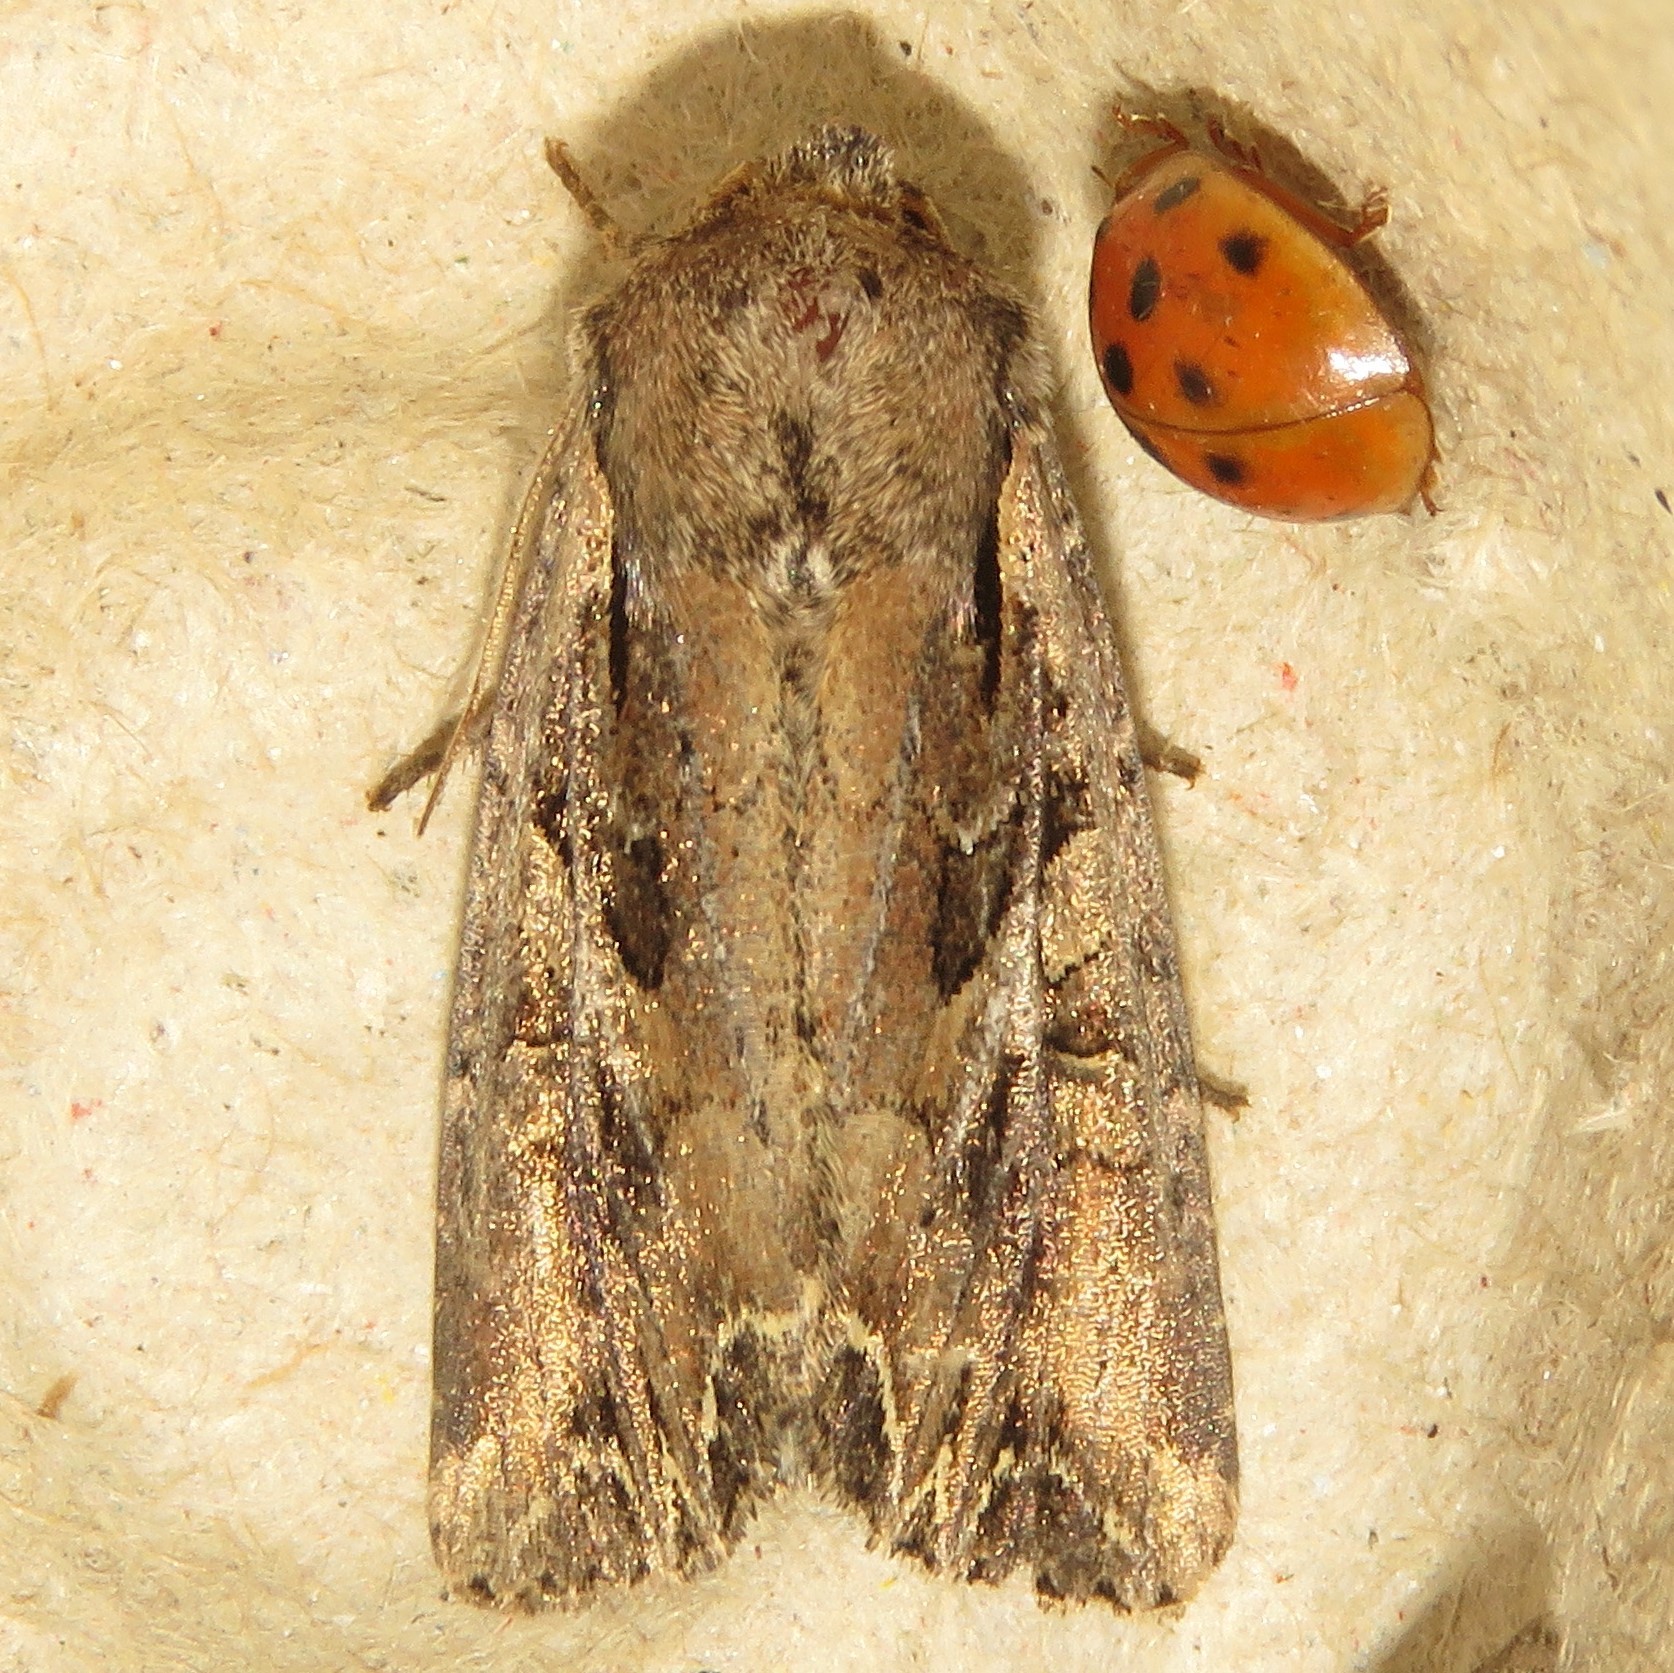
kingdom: Animalia
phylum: Arthropoda
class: Insecta
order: Lepidoptera
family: Noctuidae
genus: Lacanobia
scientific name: Lacanobia atlantica
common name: Atlantic arches moth
